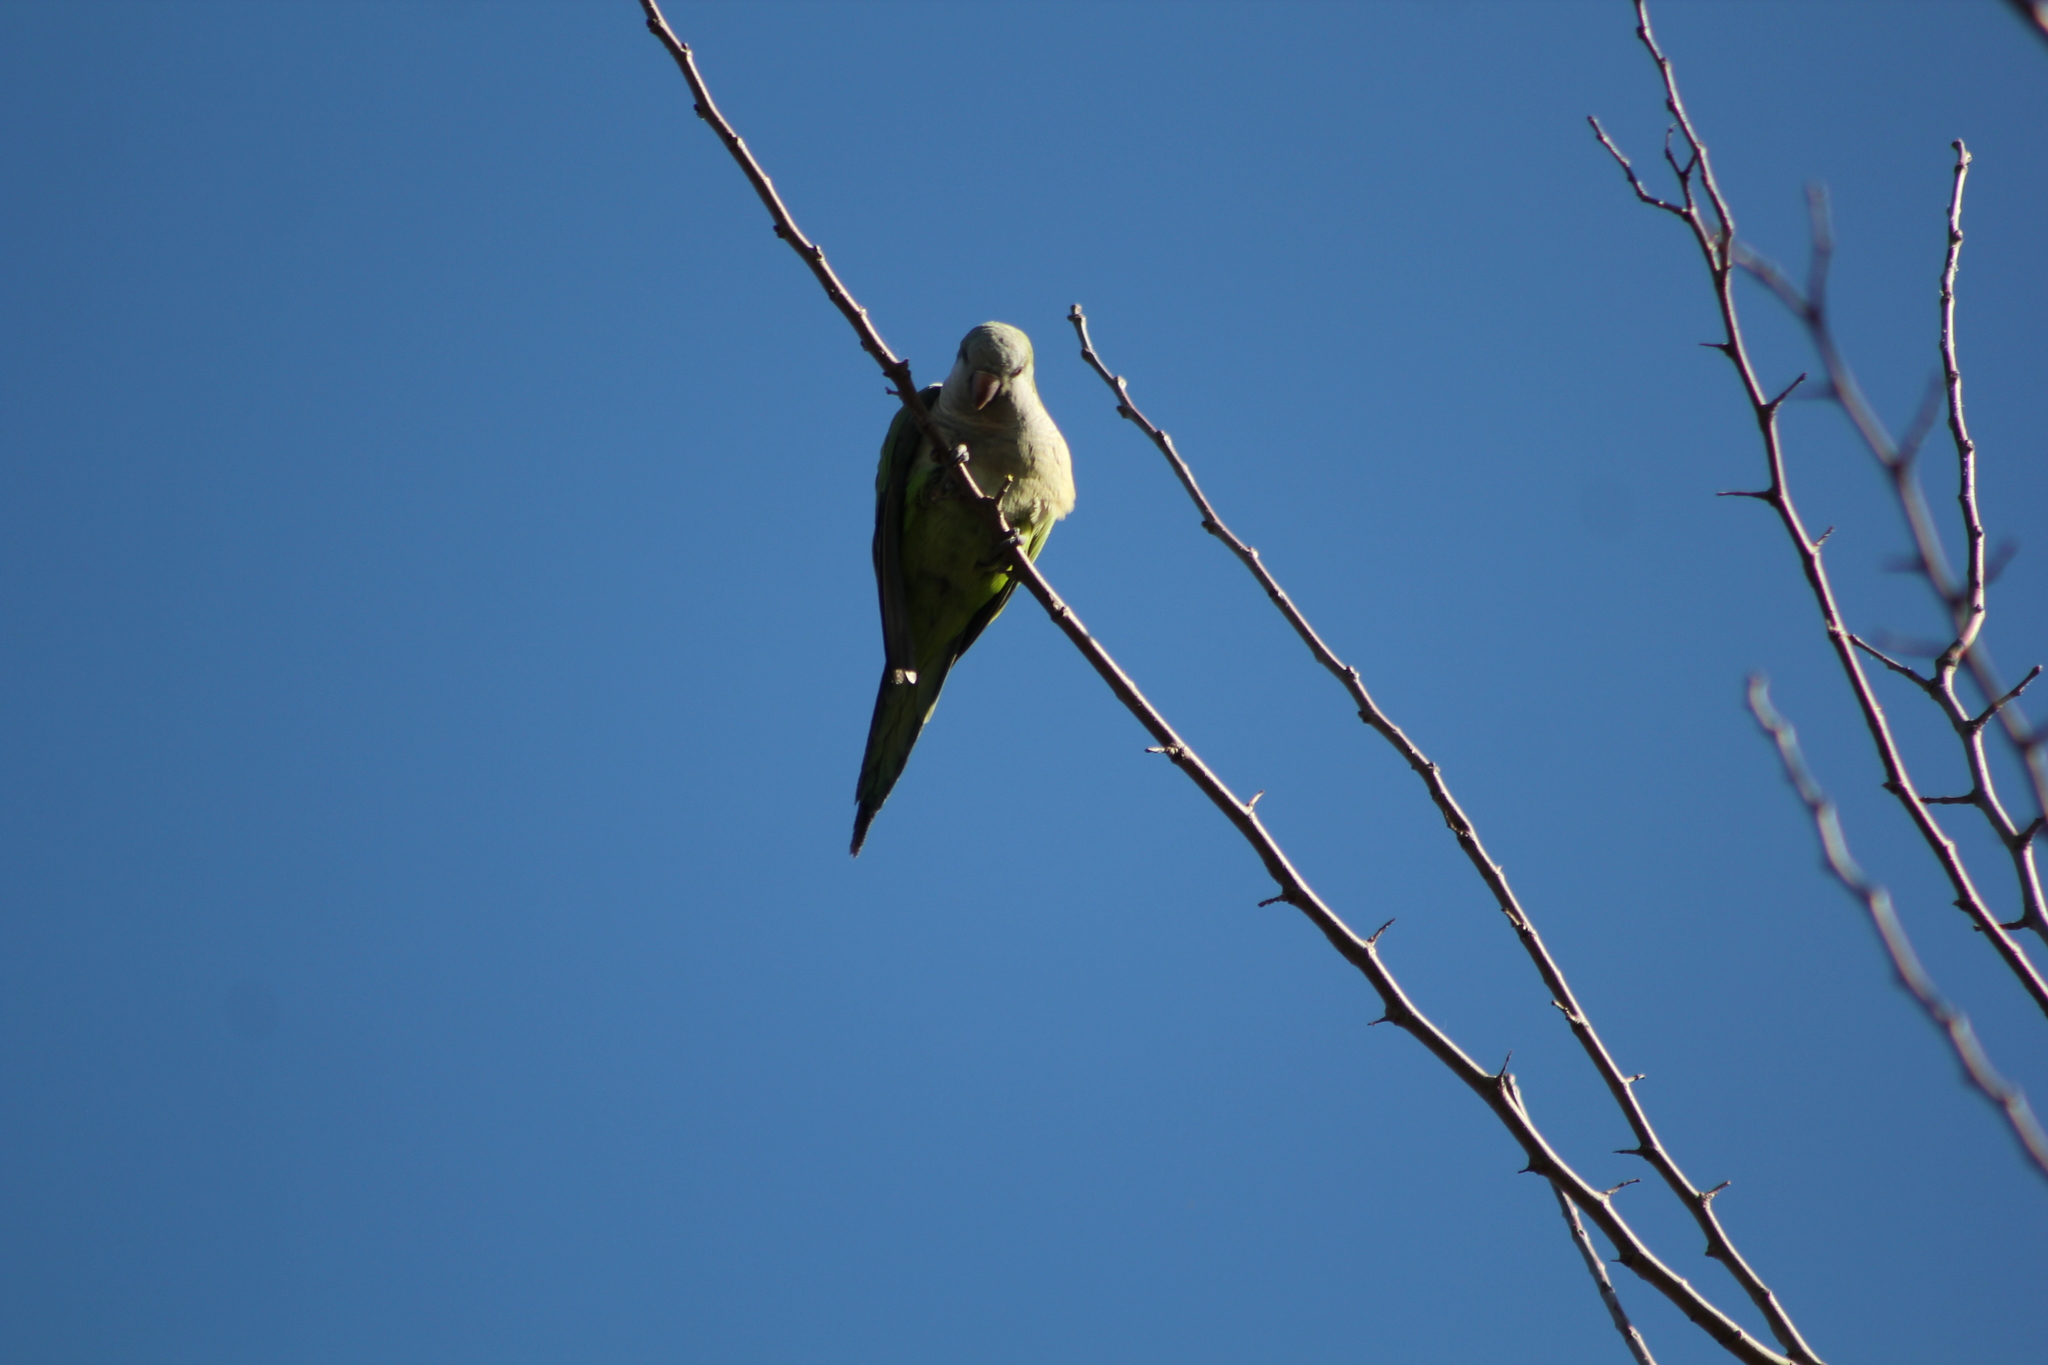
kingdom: Animalia
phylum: Chordata
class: Aves
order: Psittaciformes
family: Psittacidae
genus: Myiopsitta
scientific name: Myiopsitta monachus
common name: Monk parakeet
